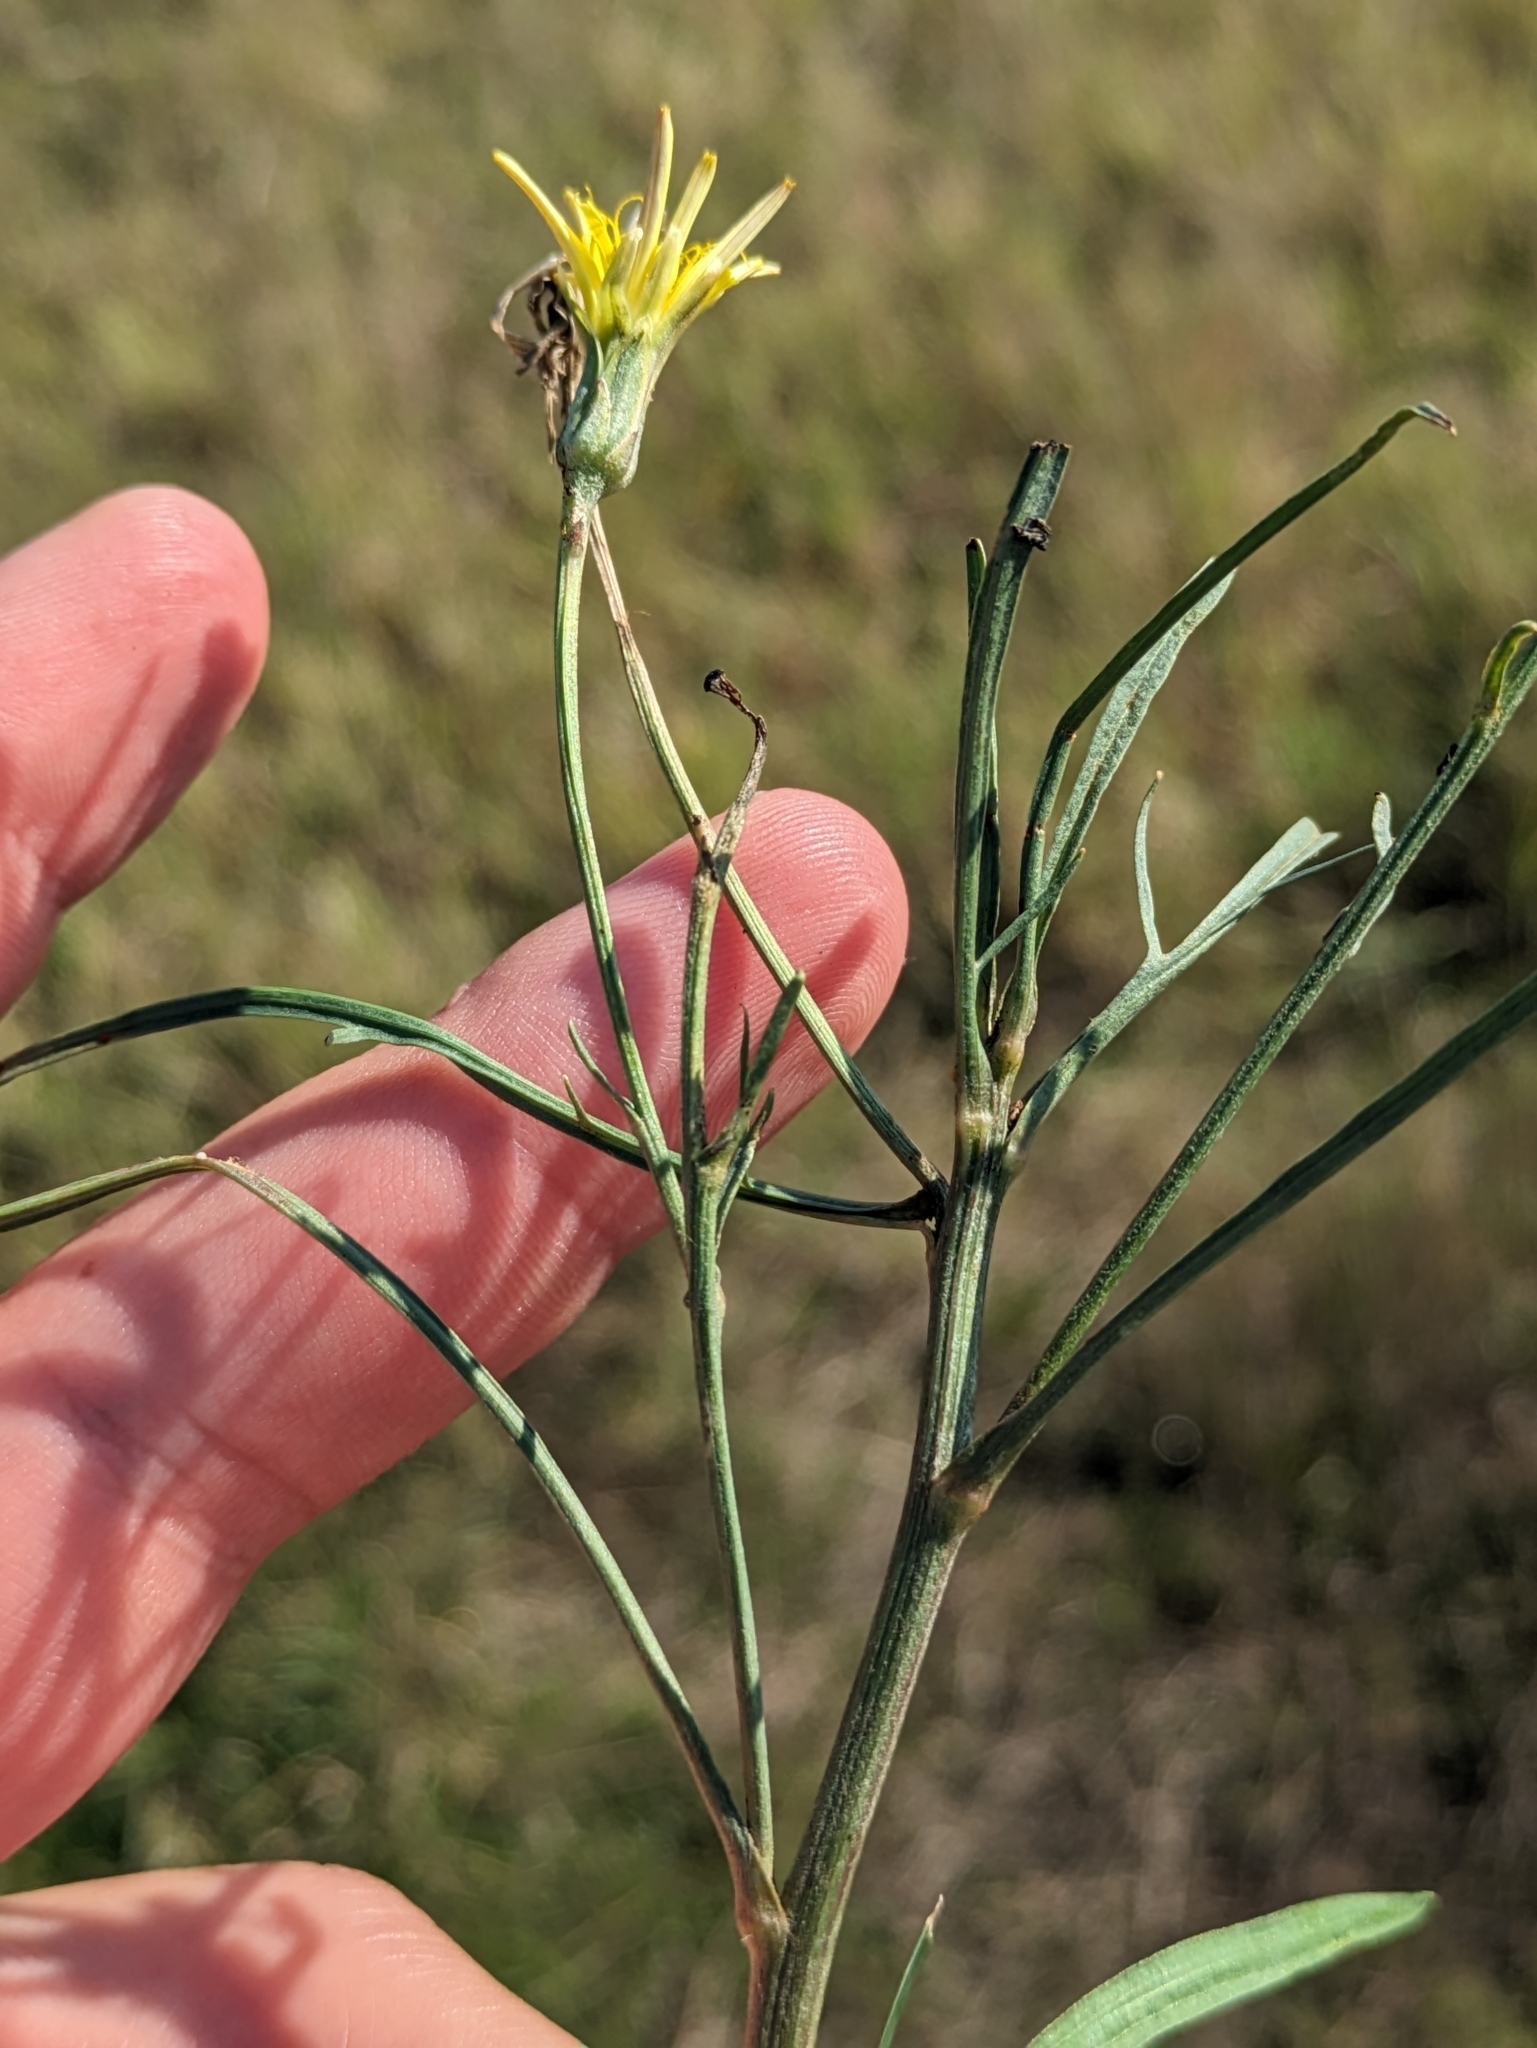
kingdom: Plantae
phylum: Tracheophyta
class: Magnoliopsida
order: Asterales
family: Asteraceae
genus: Scorzonera
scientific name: Scorzonera cana
